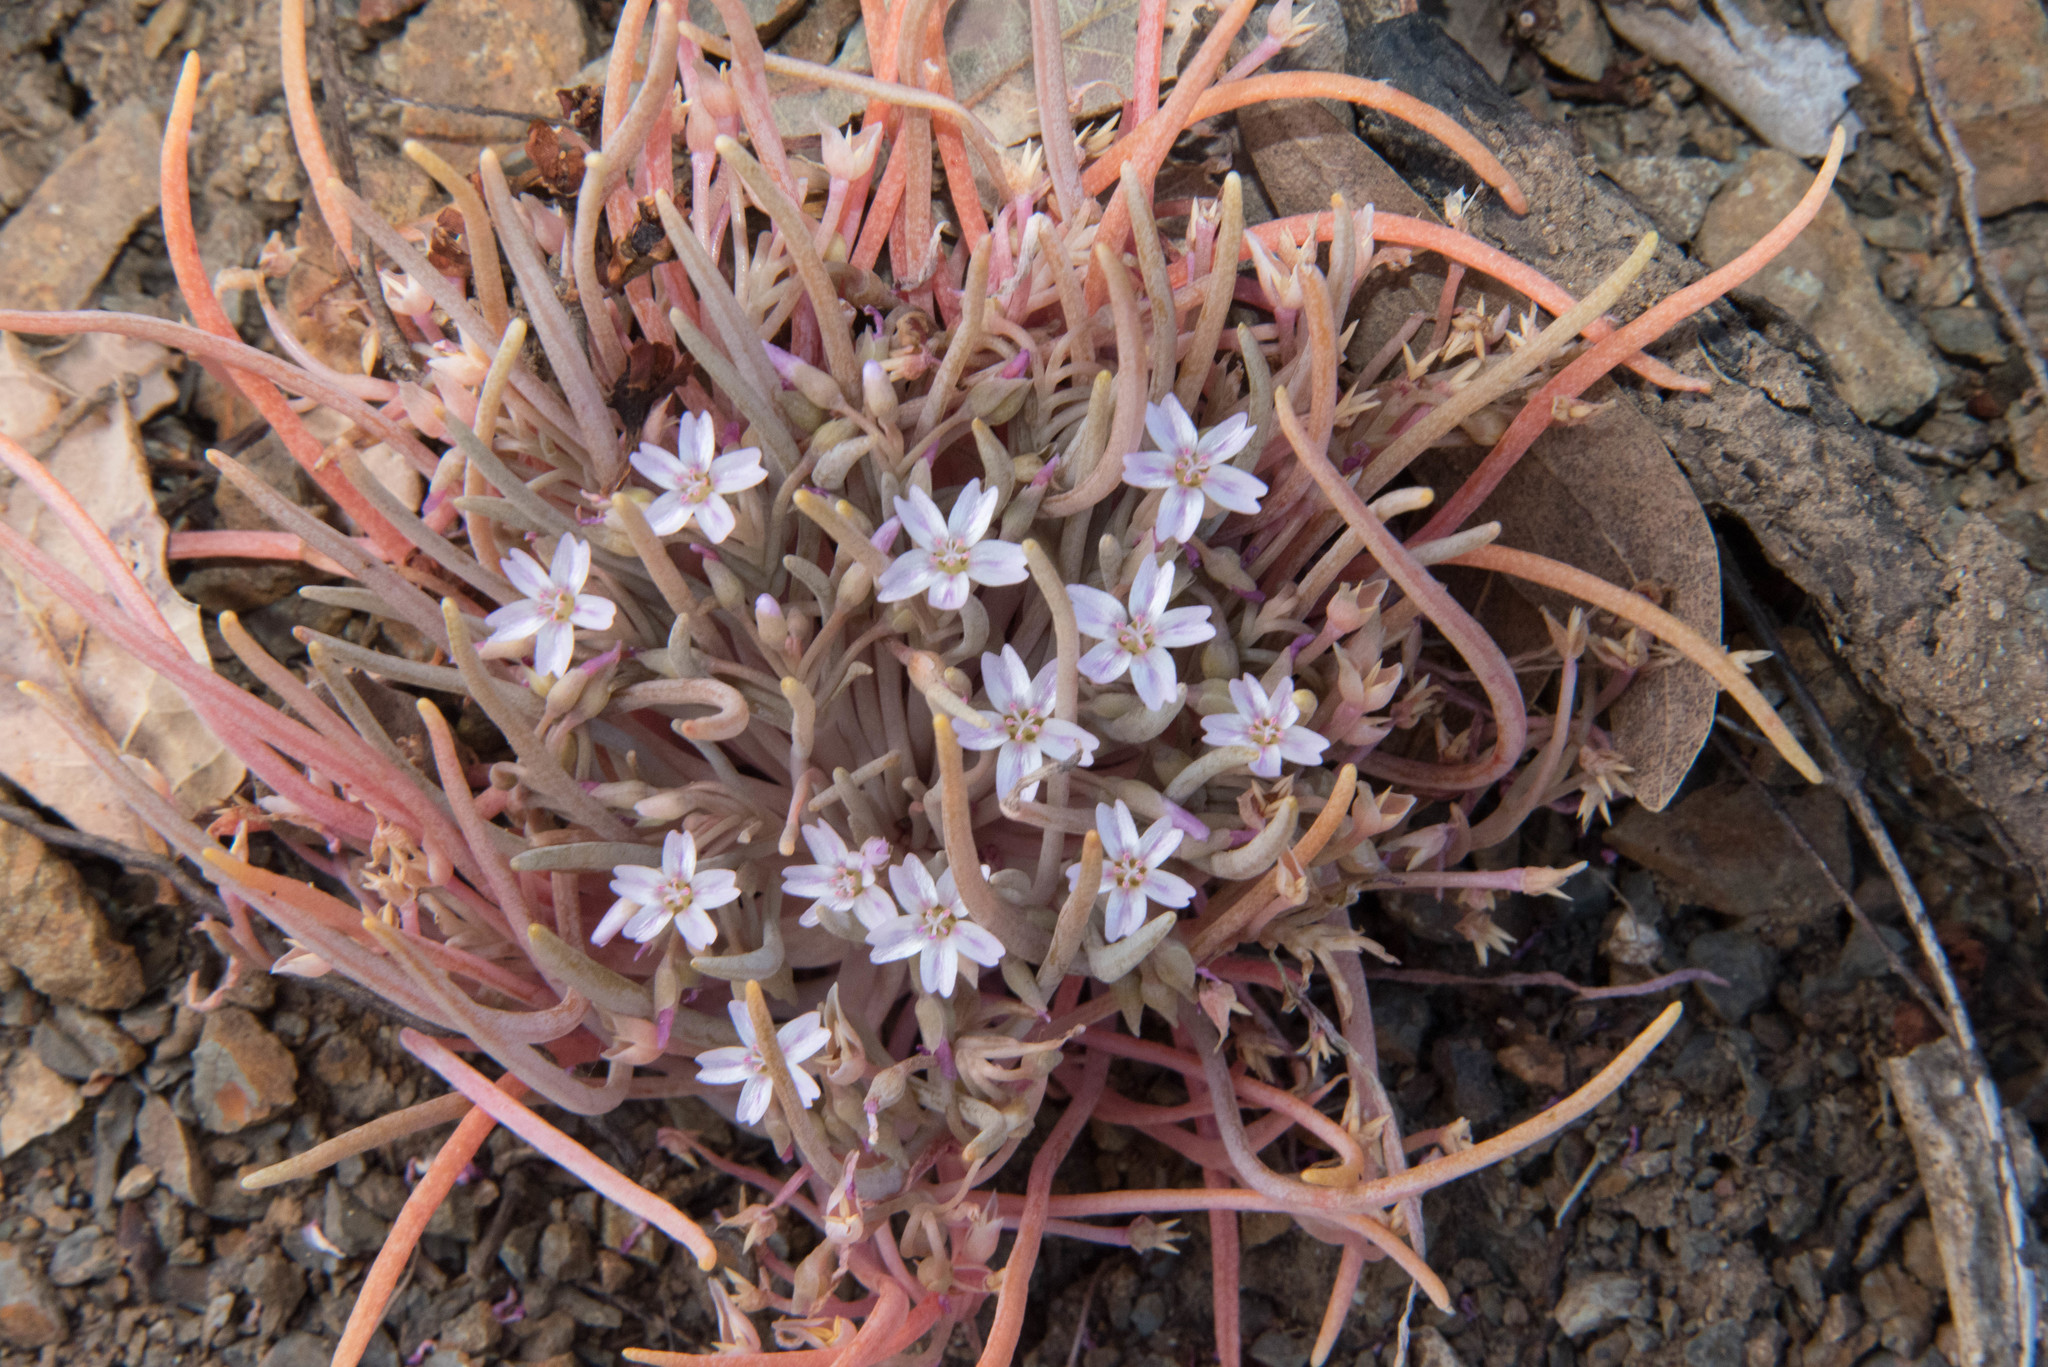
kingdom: Plantae
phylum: Tracheophyta
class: Magnoliopsida
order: Caryophyllales
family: Montiaceae
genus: Claytonia
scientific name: Claytonia exigua
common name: Pale spring beauty
